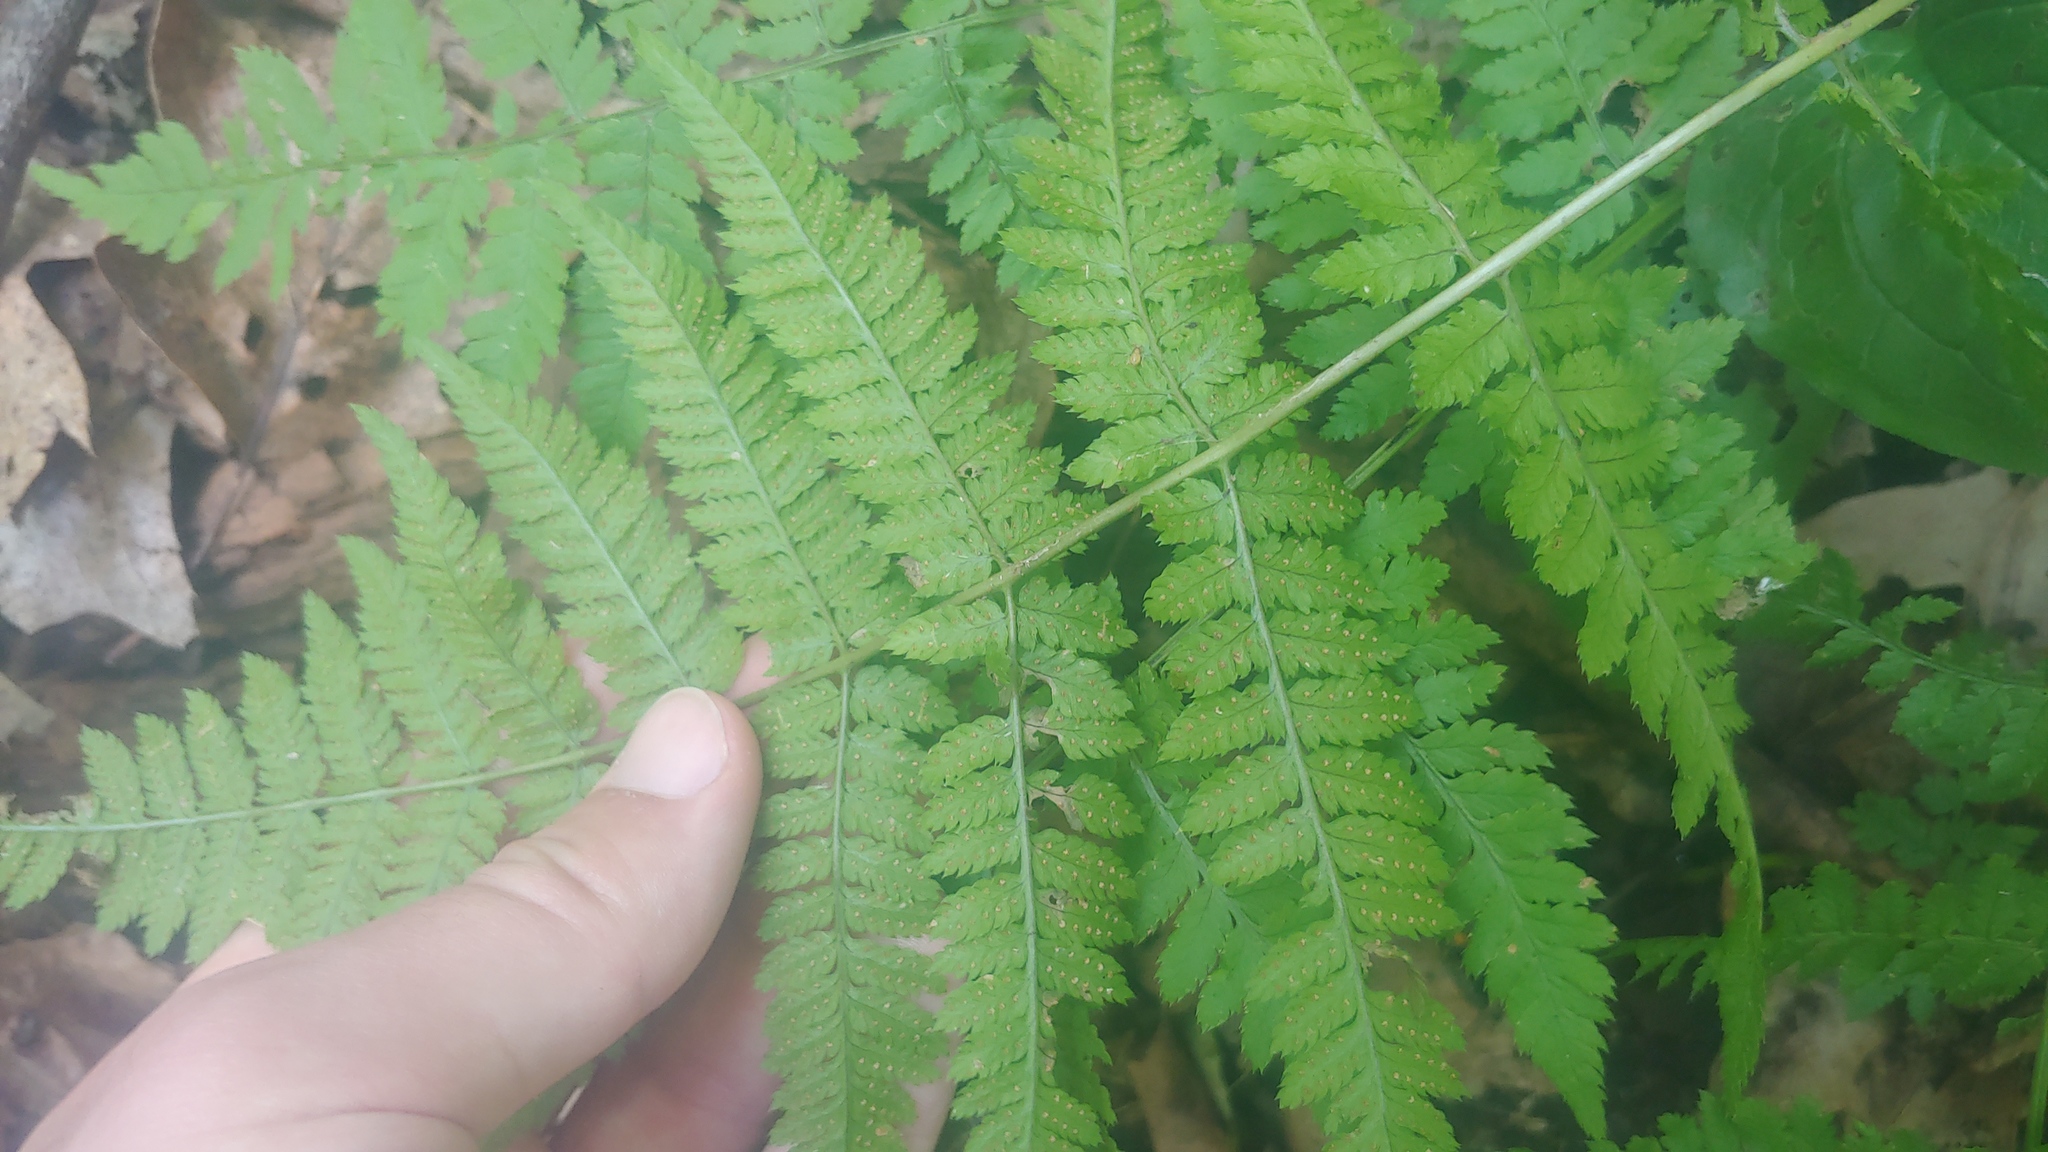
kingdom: Plantae
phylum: Tracheophyta
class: Polypodiopsida
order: Polypodiales
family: Dryopteridaceae
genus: Dryopteris
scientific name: Dryopteris intermedia
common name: Evergreen wood fern
